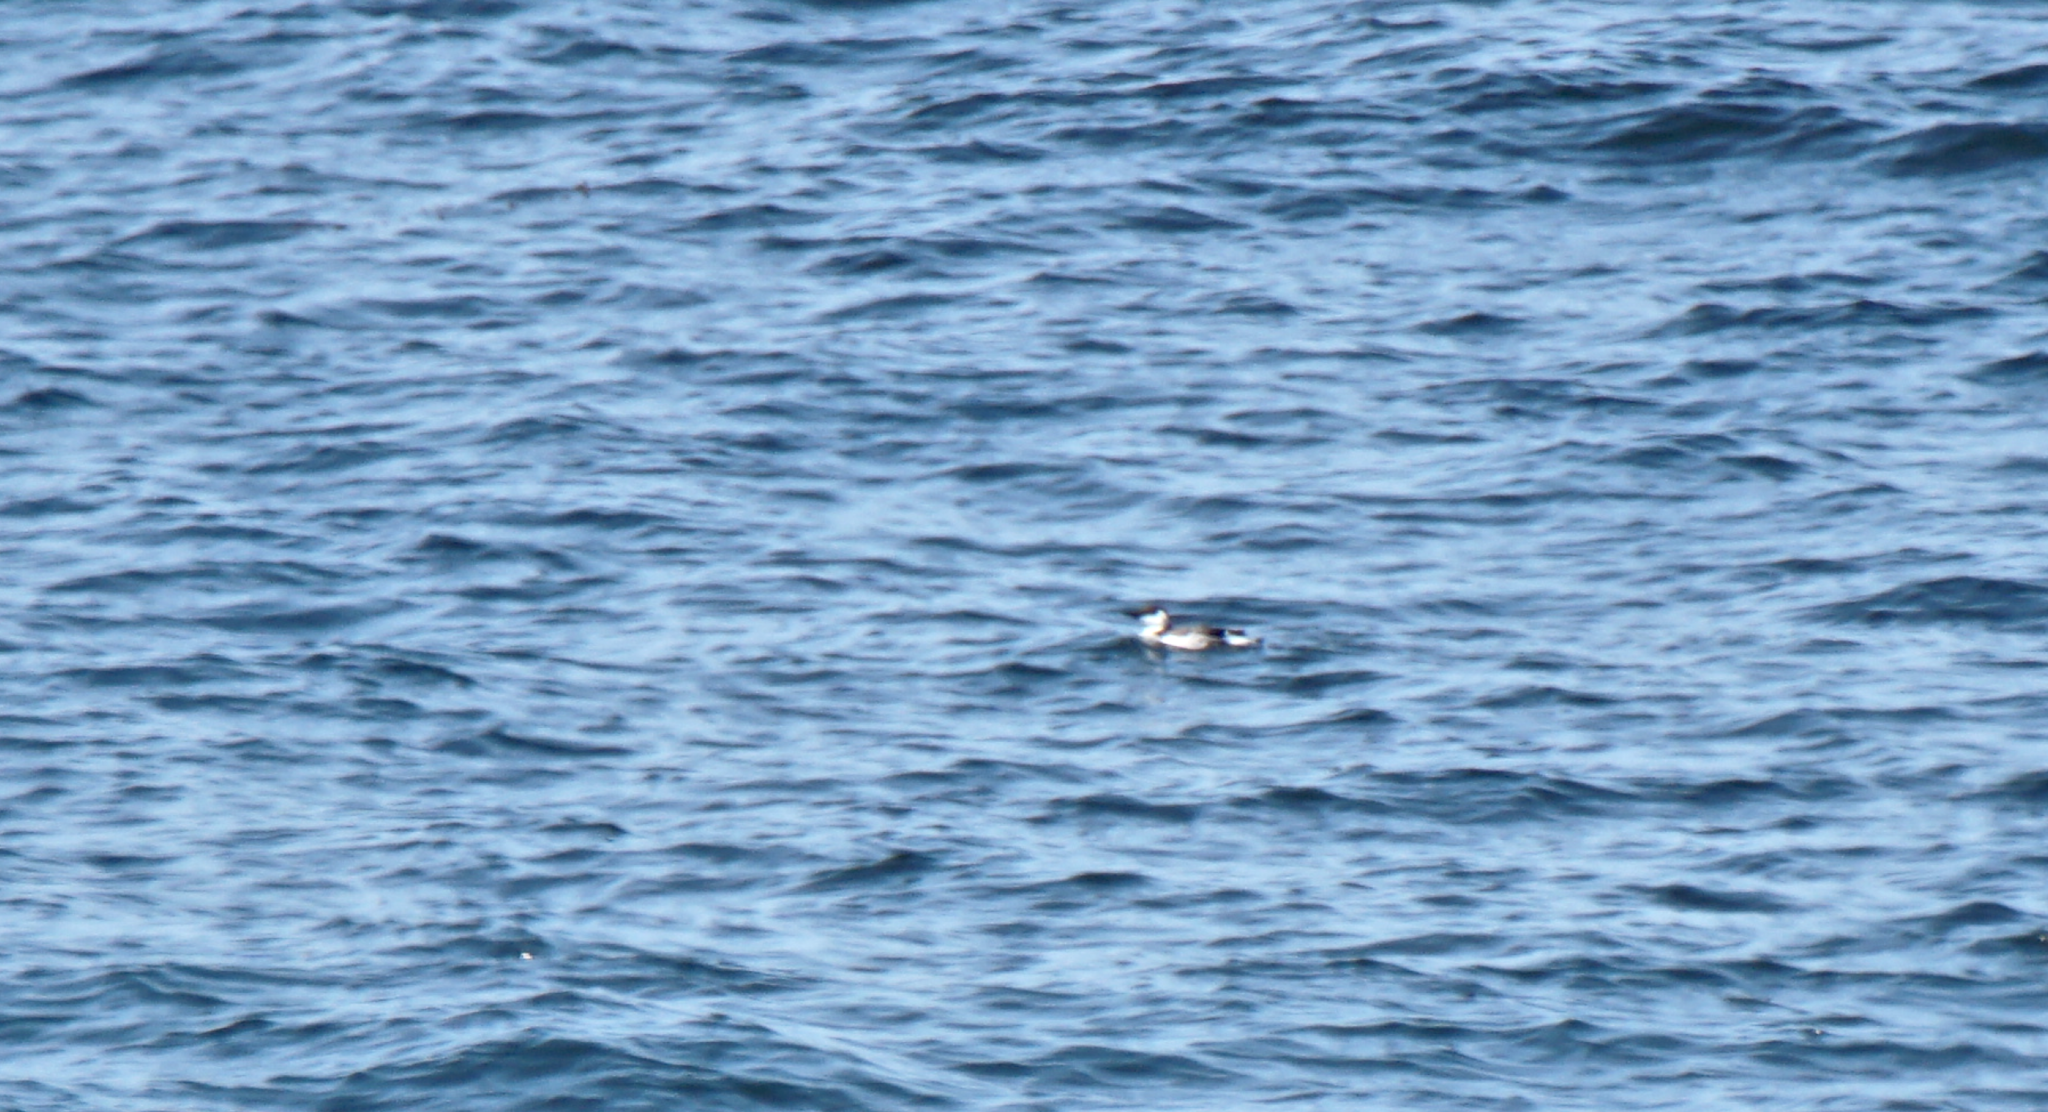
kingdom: Animalia
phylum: Chordata
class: Aves
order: Charadriiformes
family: Alcidae
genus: Uria
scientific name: Uria aalge
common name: Common murre
